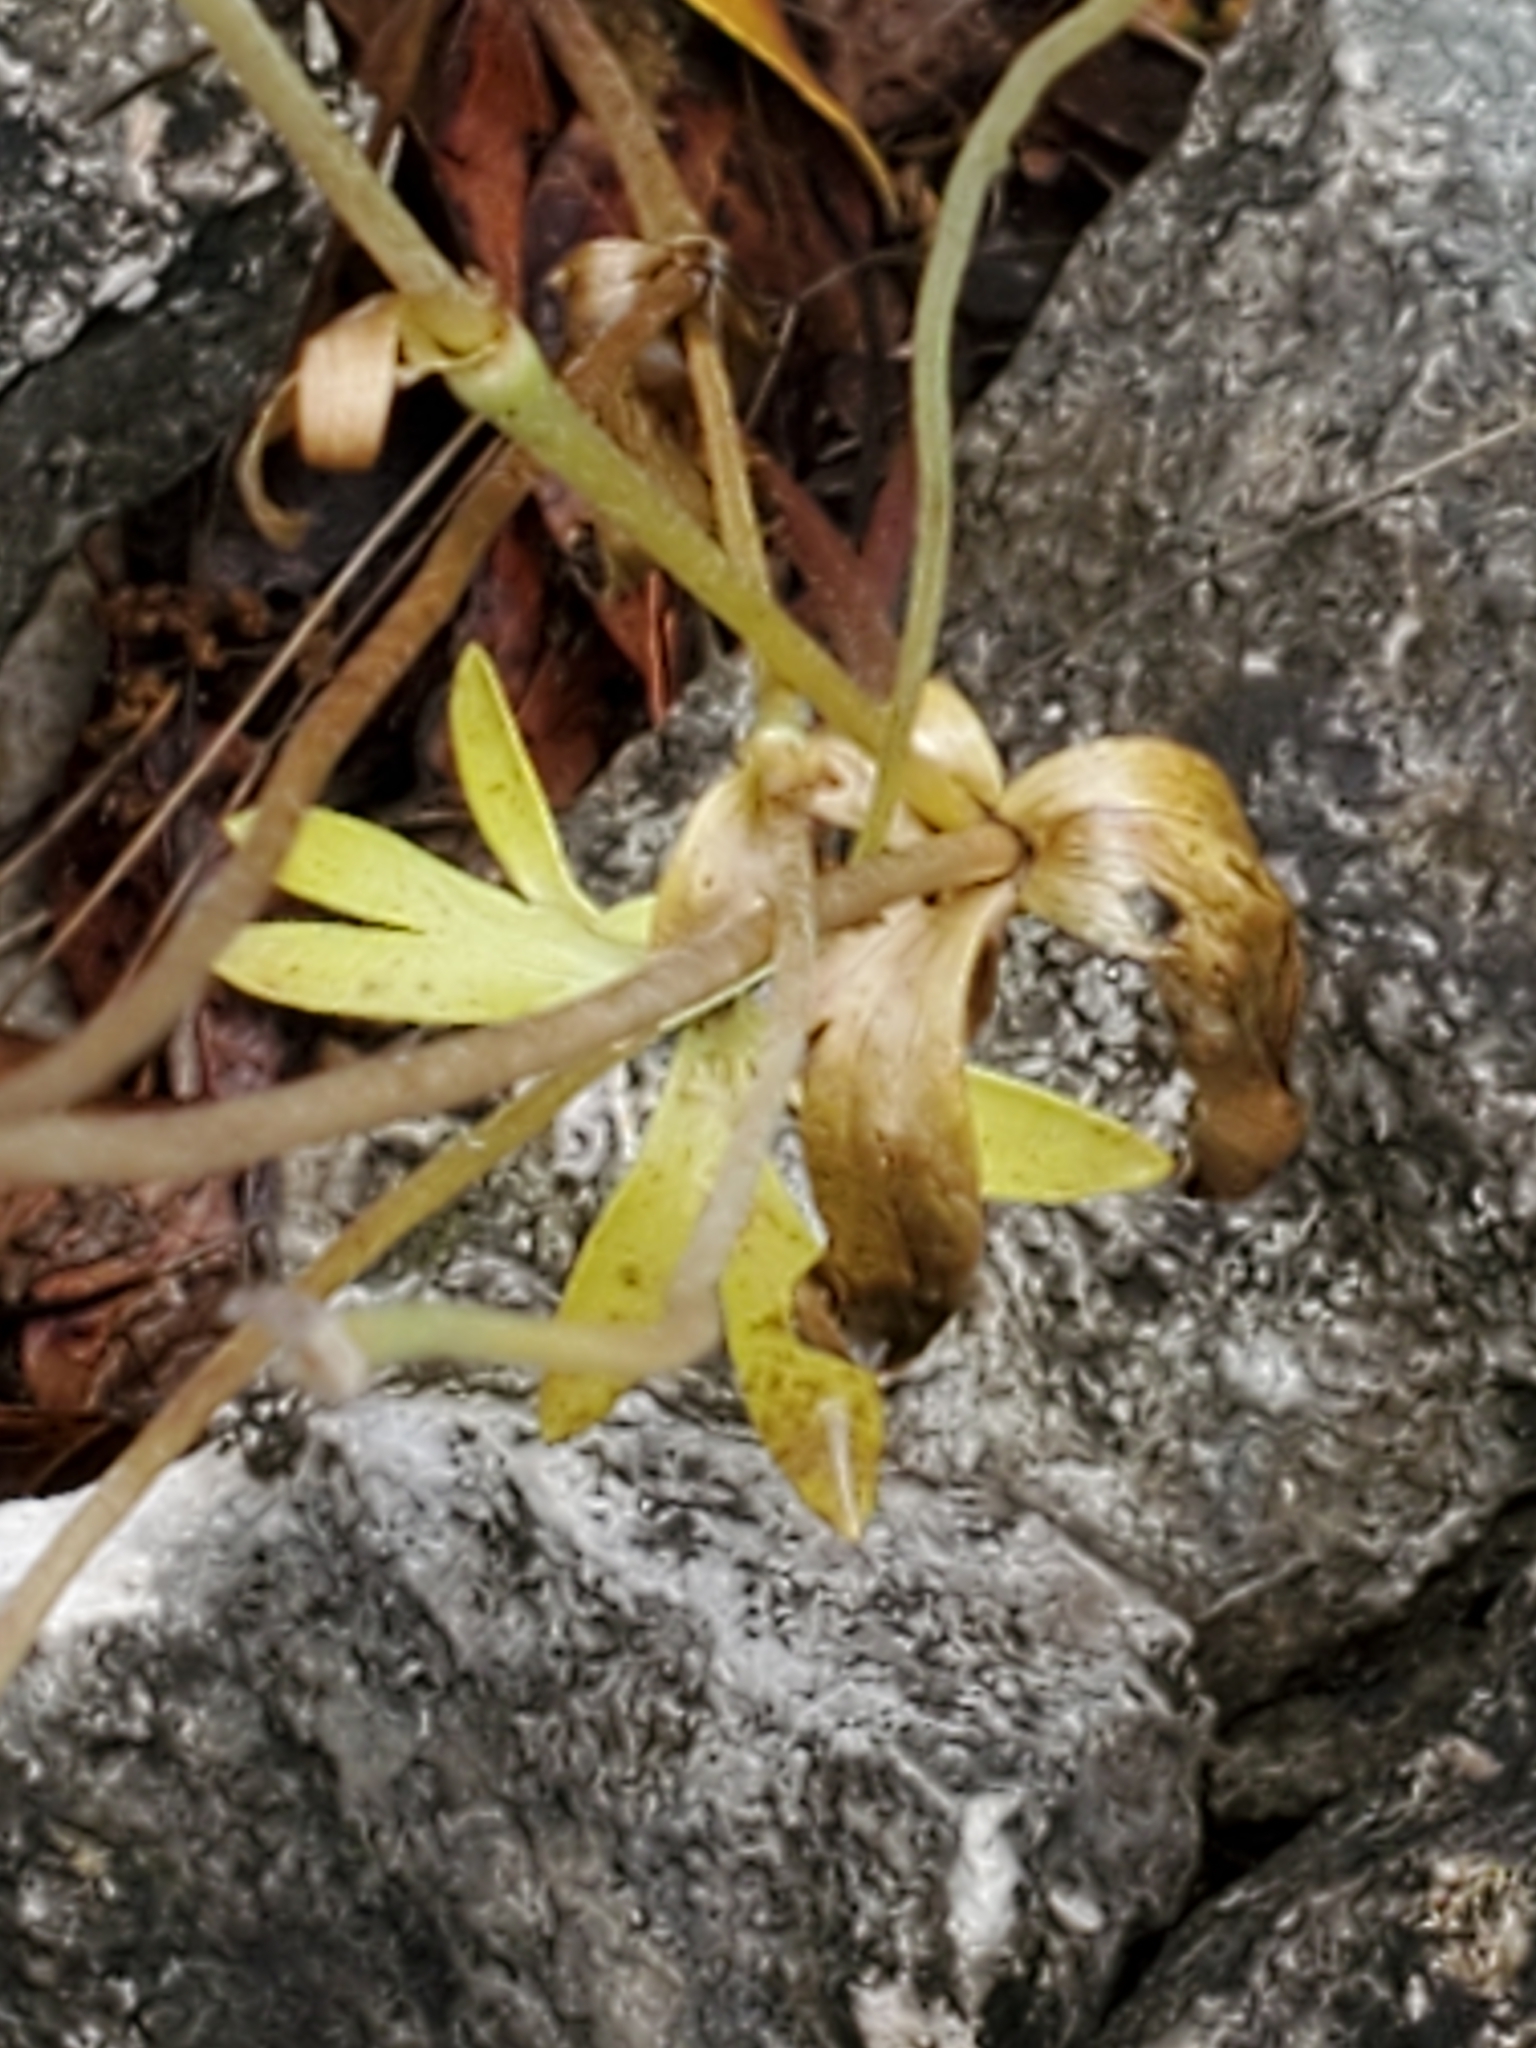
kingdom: Plantae
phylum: Tracheophyta
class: Magnoliopsida
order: Ranunculales
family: Ranunculaceae
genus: Anemone
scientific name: Anemone edwardsiana
